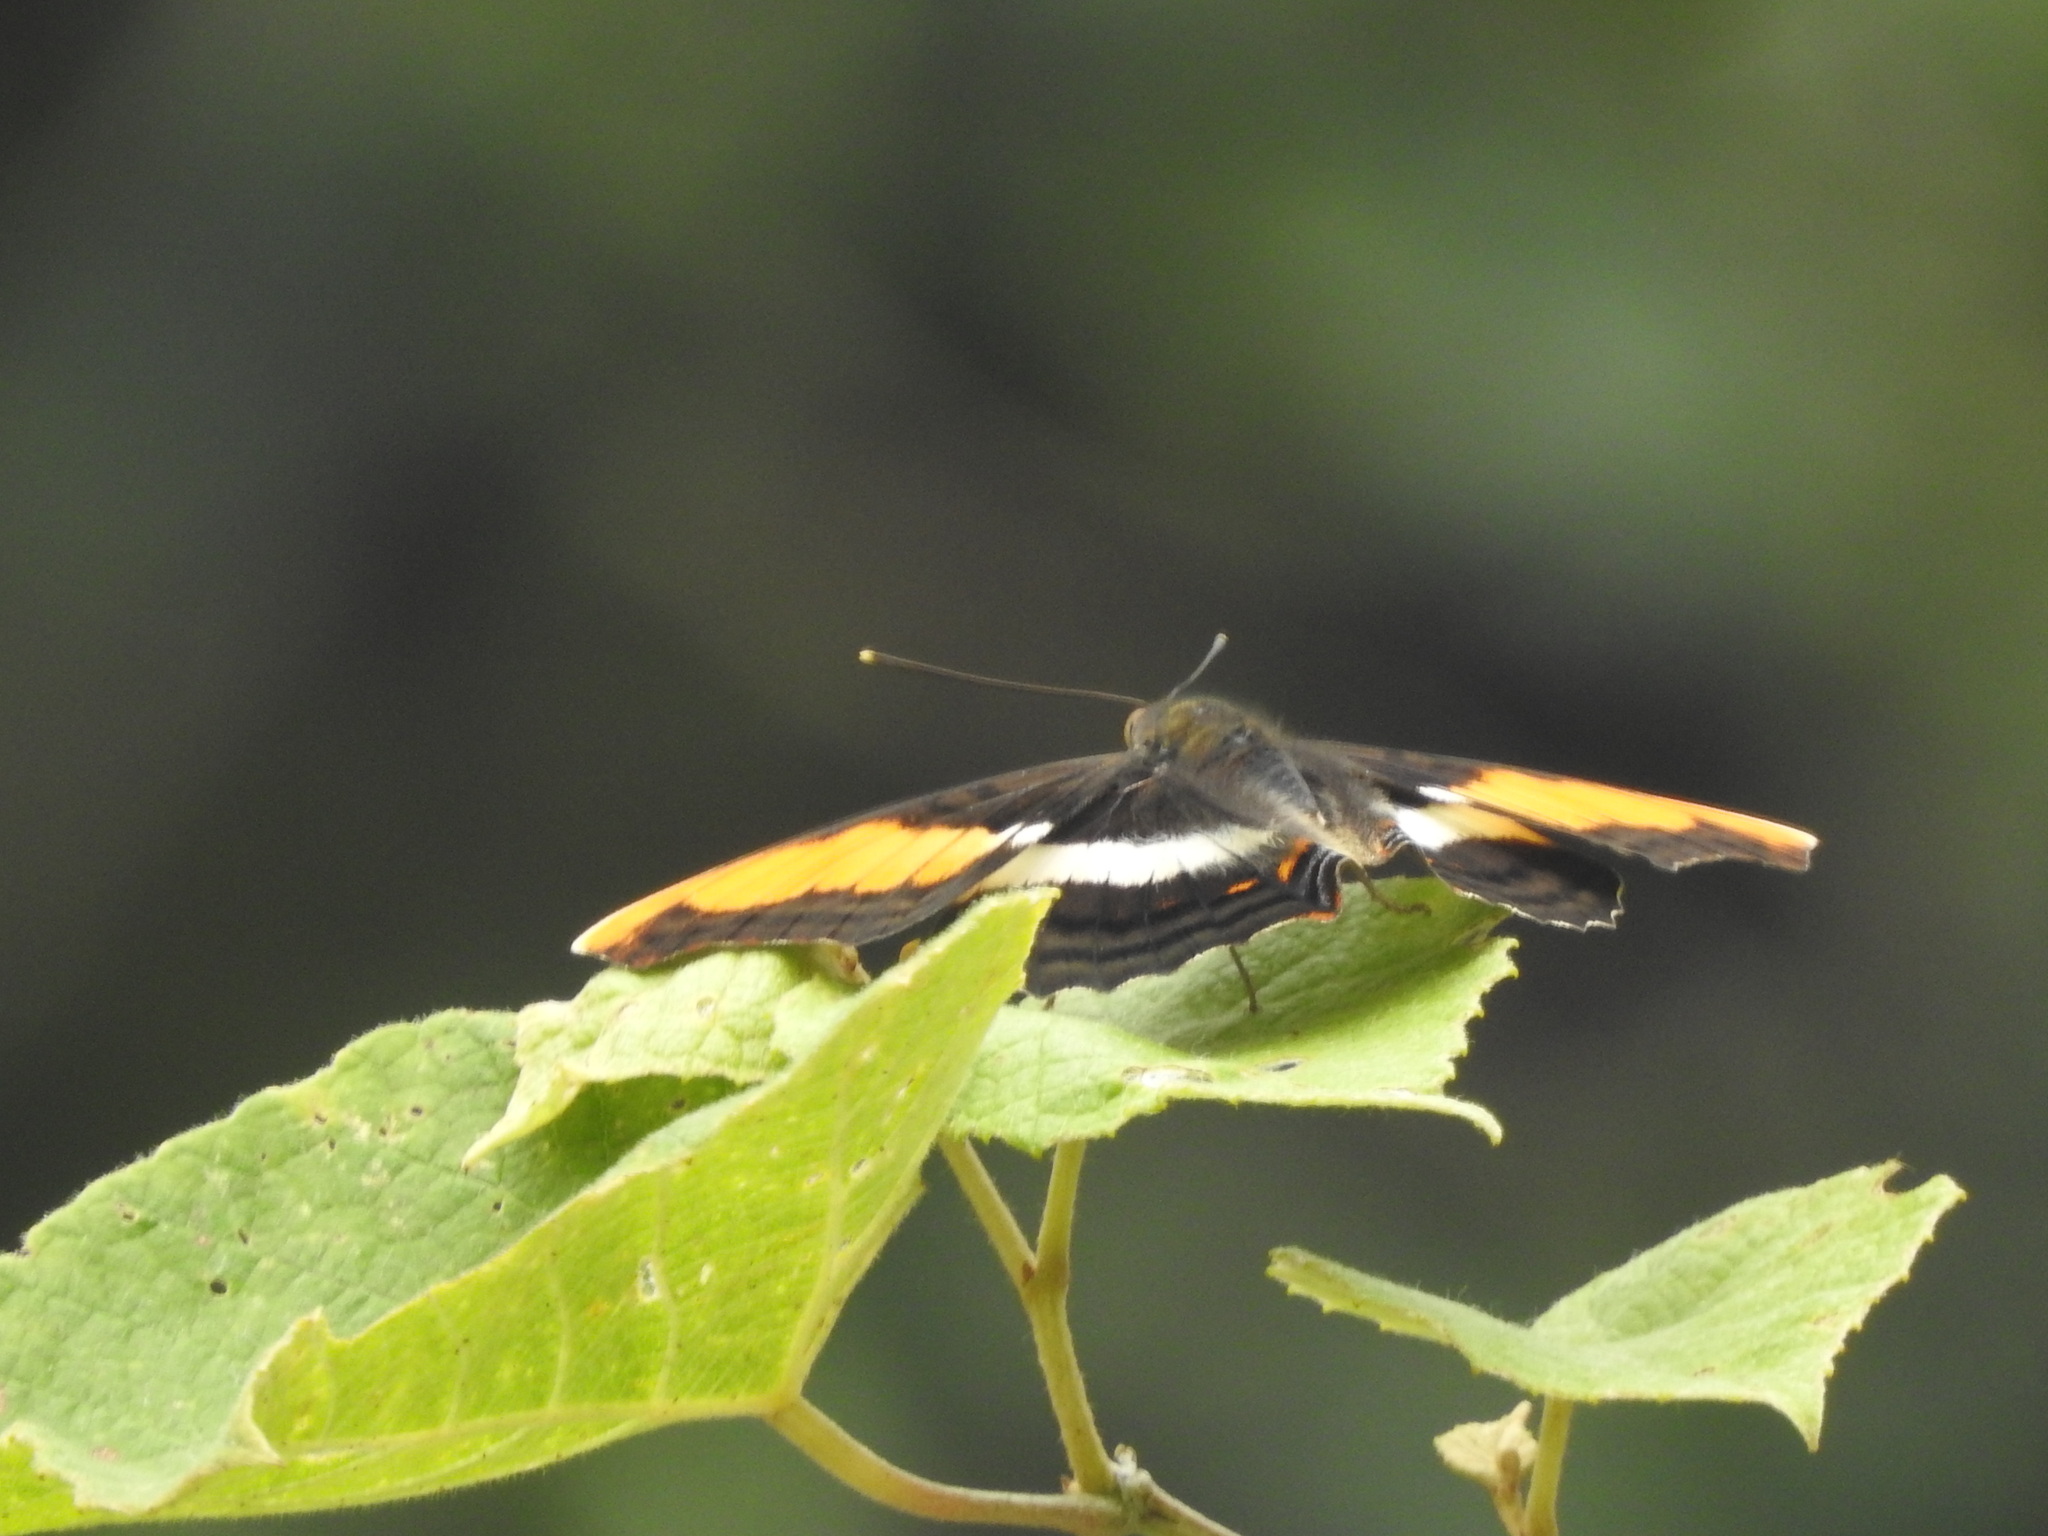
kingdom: Animalia
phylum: Arthropoda
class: Insecta
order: Lepidoptera
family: Nymphalidae
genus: Doxocopa
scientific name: Doxocopa laure
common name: Silver emperor
